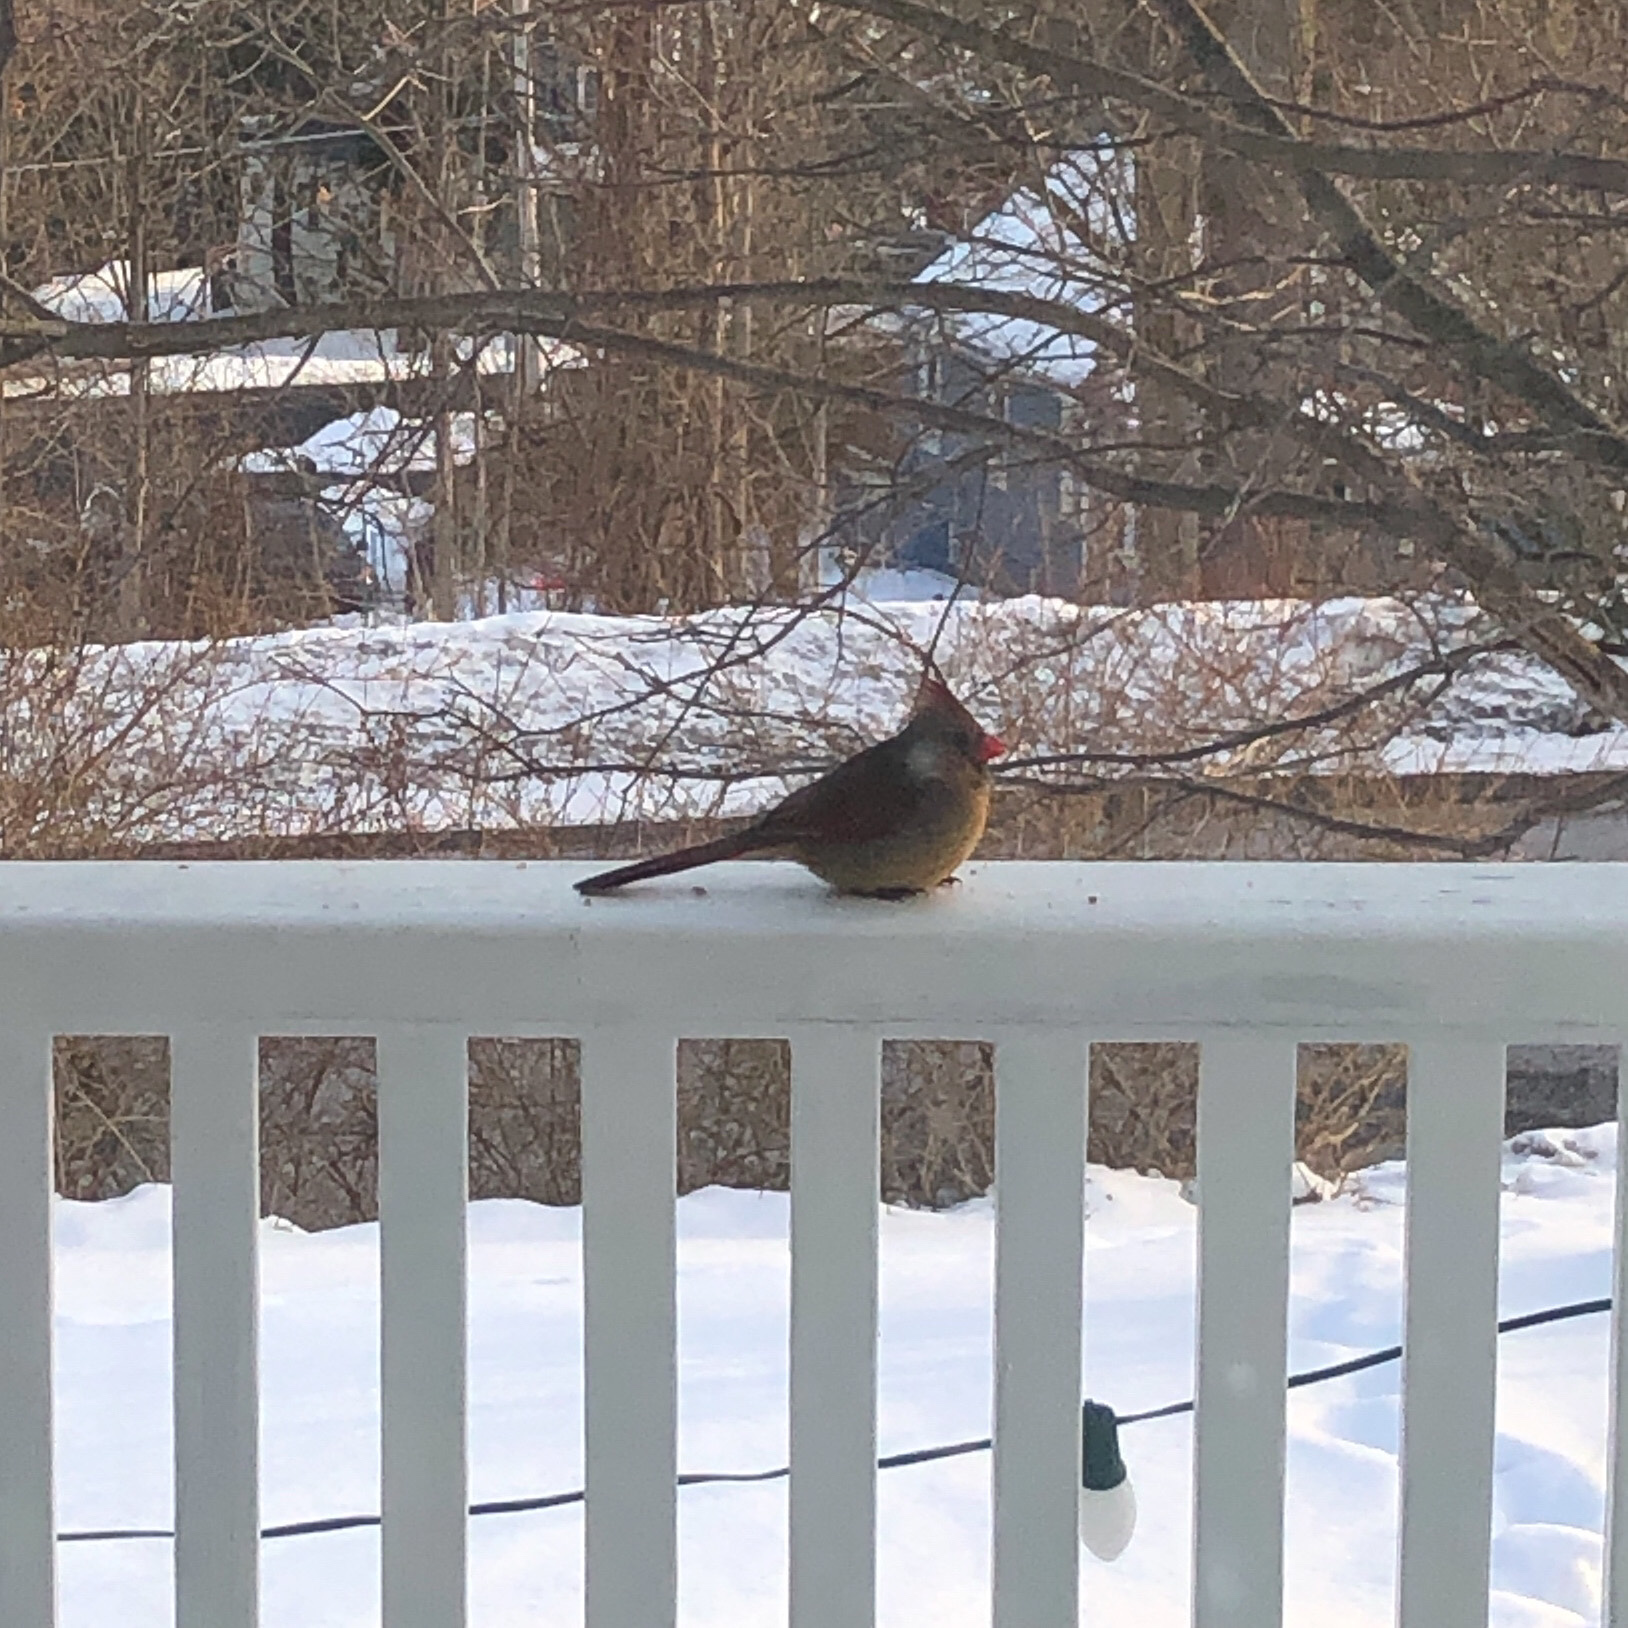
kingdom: Animalia
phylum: Chordata
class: Aves
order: Passeriformes
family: Cardinalidae
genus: Cardinalis
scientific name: Cardinalis cardinalis
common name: Northern cardinal
